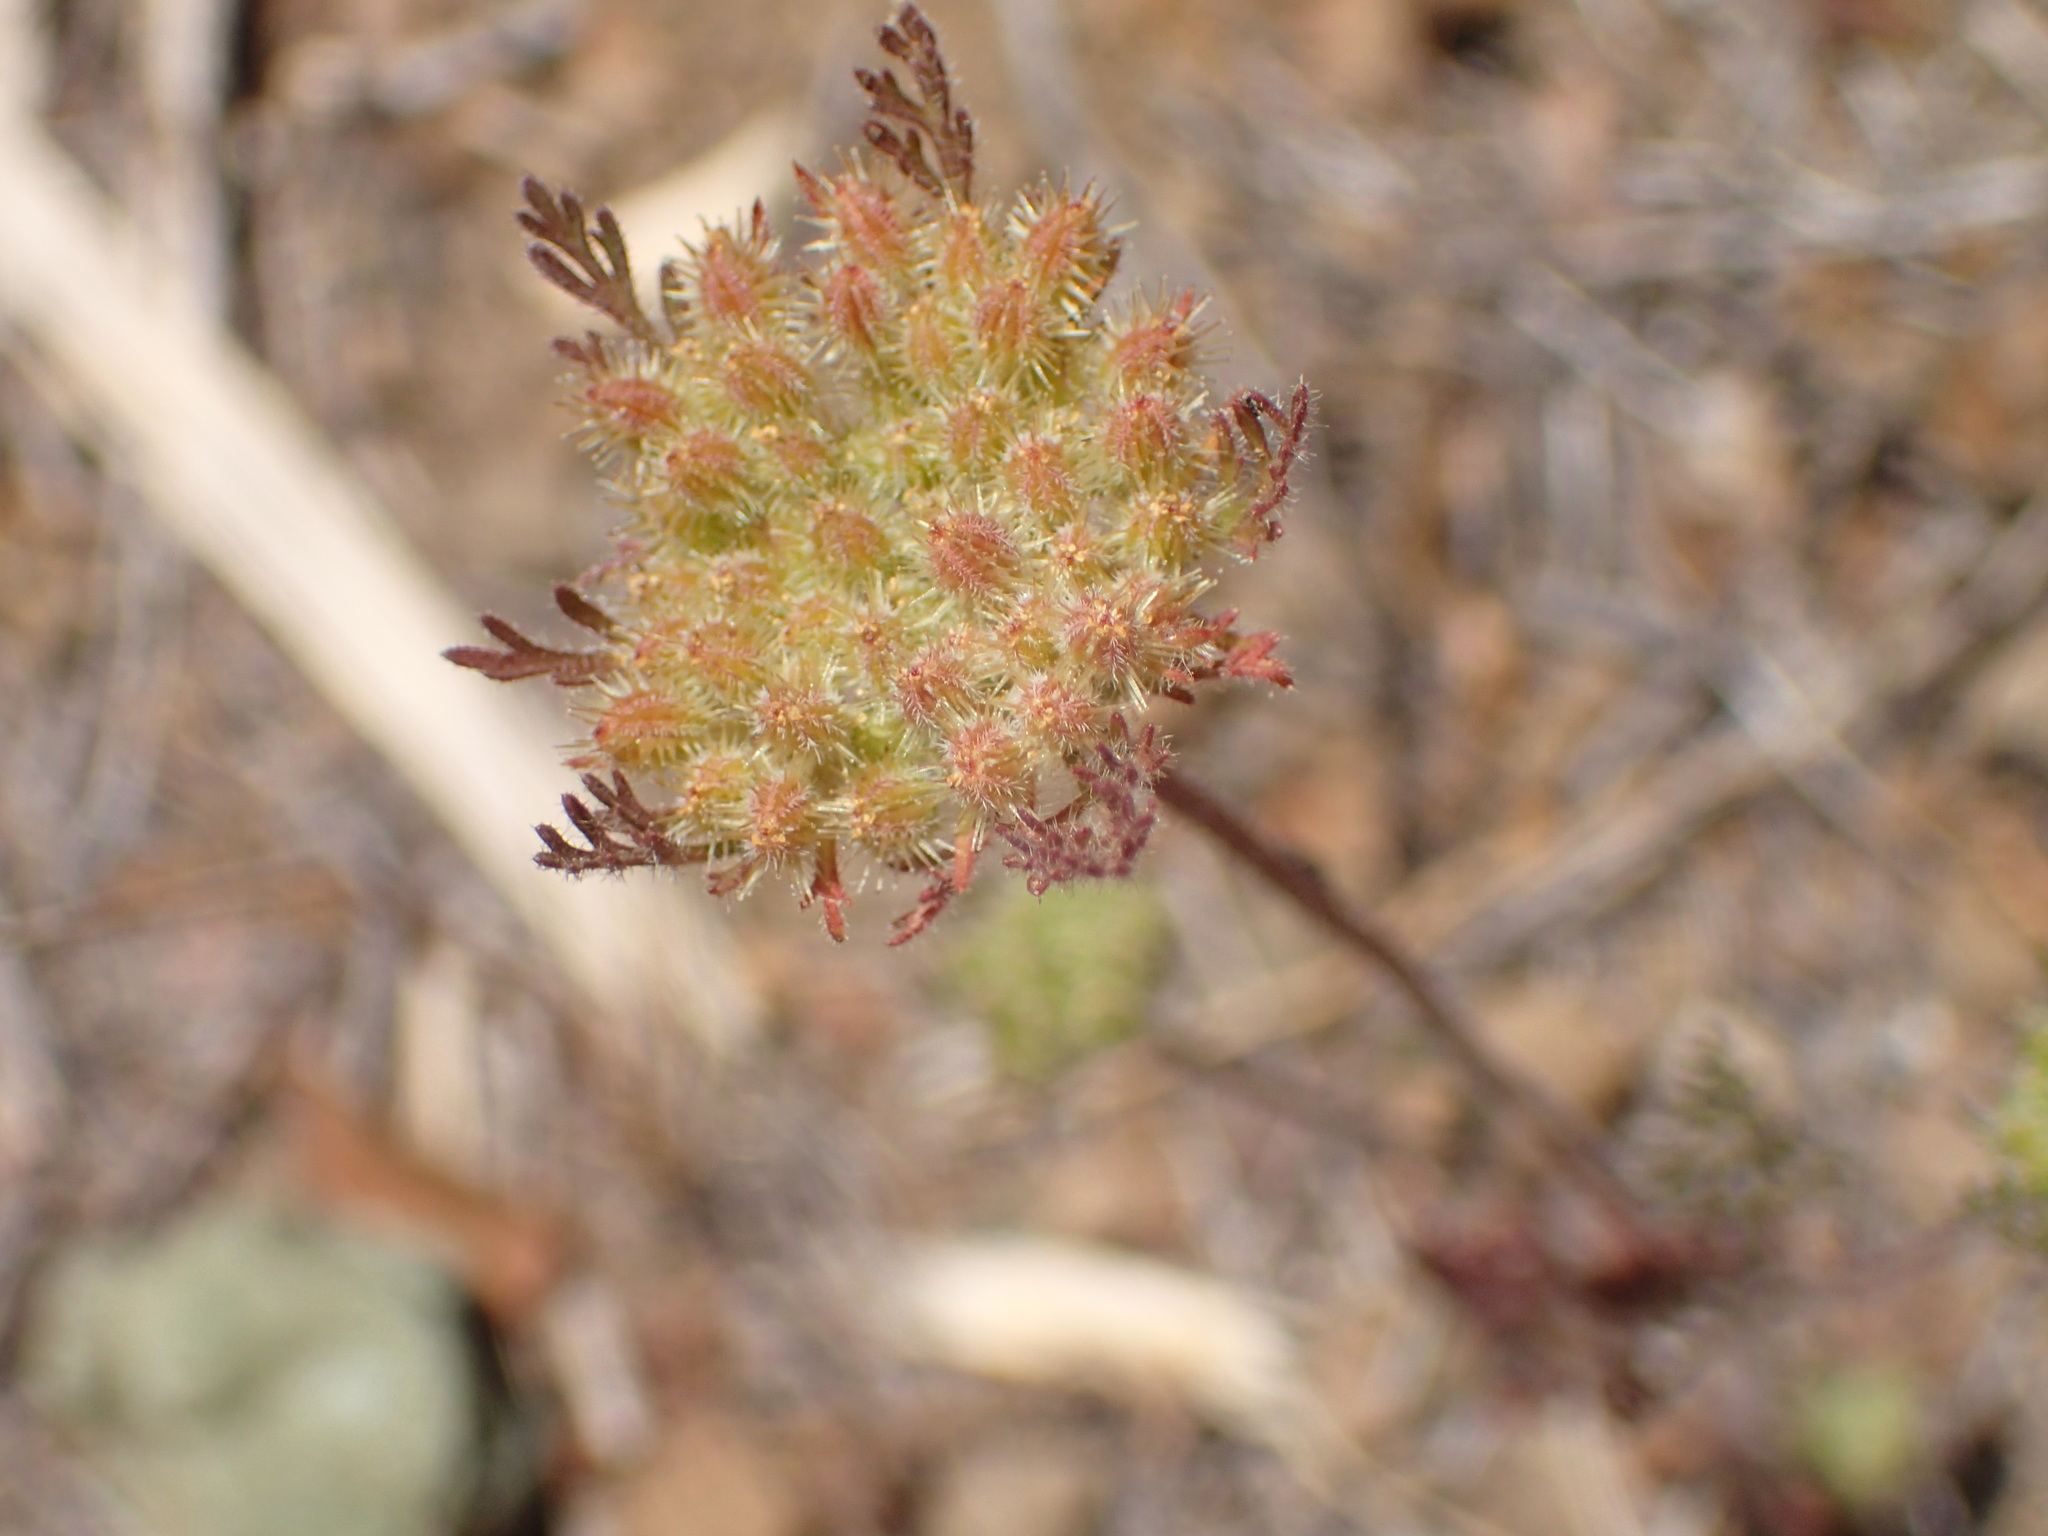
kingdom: Plantae
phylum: Tracheophyta
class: Magnoliopsida
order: Apiales
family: Apiaceae
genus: Daucus
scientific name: Daucus pusillus
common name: Southwest wild carrot
